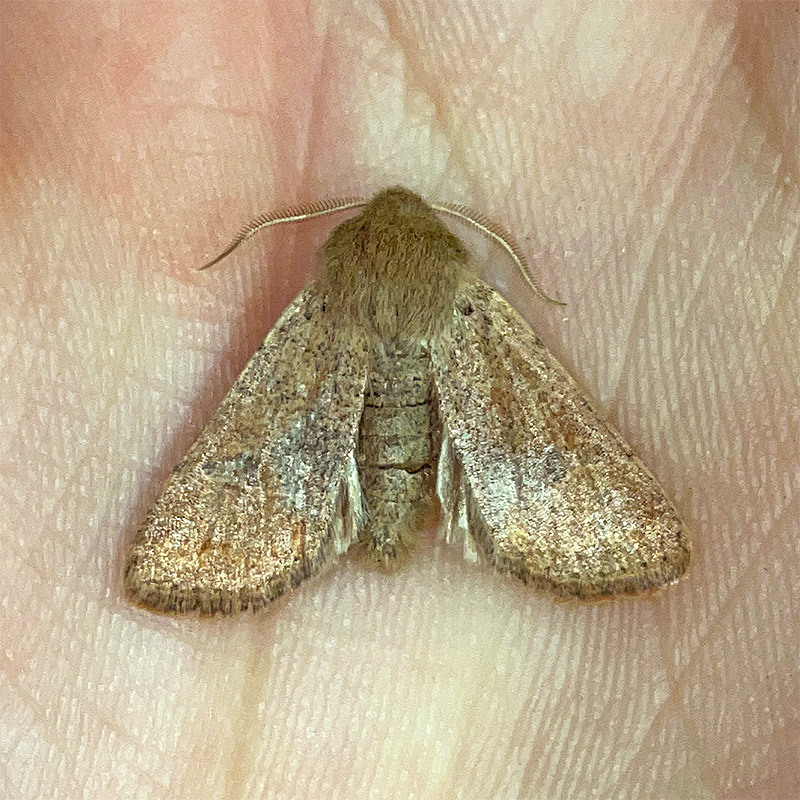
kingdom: Animalia
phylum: Arthropoda
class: Insecta
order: Lepidoptera
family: Noctuidae
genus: Orthosia
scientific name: Orthosia cruda
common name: Small quaker
